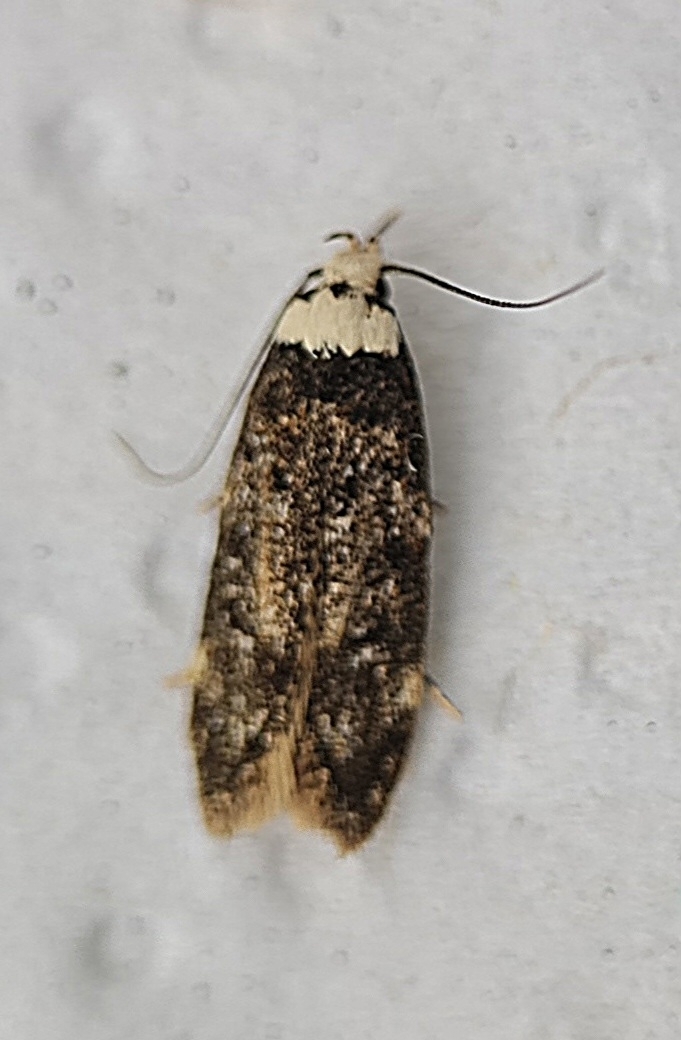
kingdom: Animalia
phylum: Arthropoda
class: Insecta
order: Lepidoptera
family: Oecophoridae
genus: Endrosis
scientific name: Endrosis sarcitrella
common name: White-shouldered house moth
